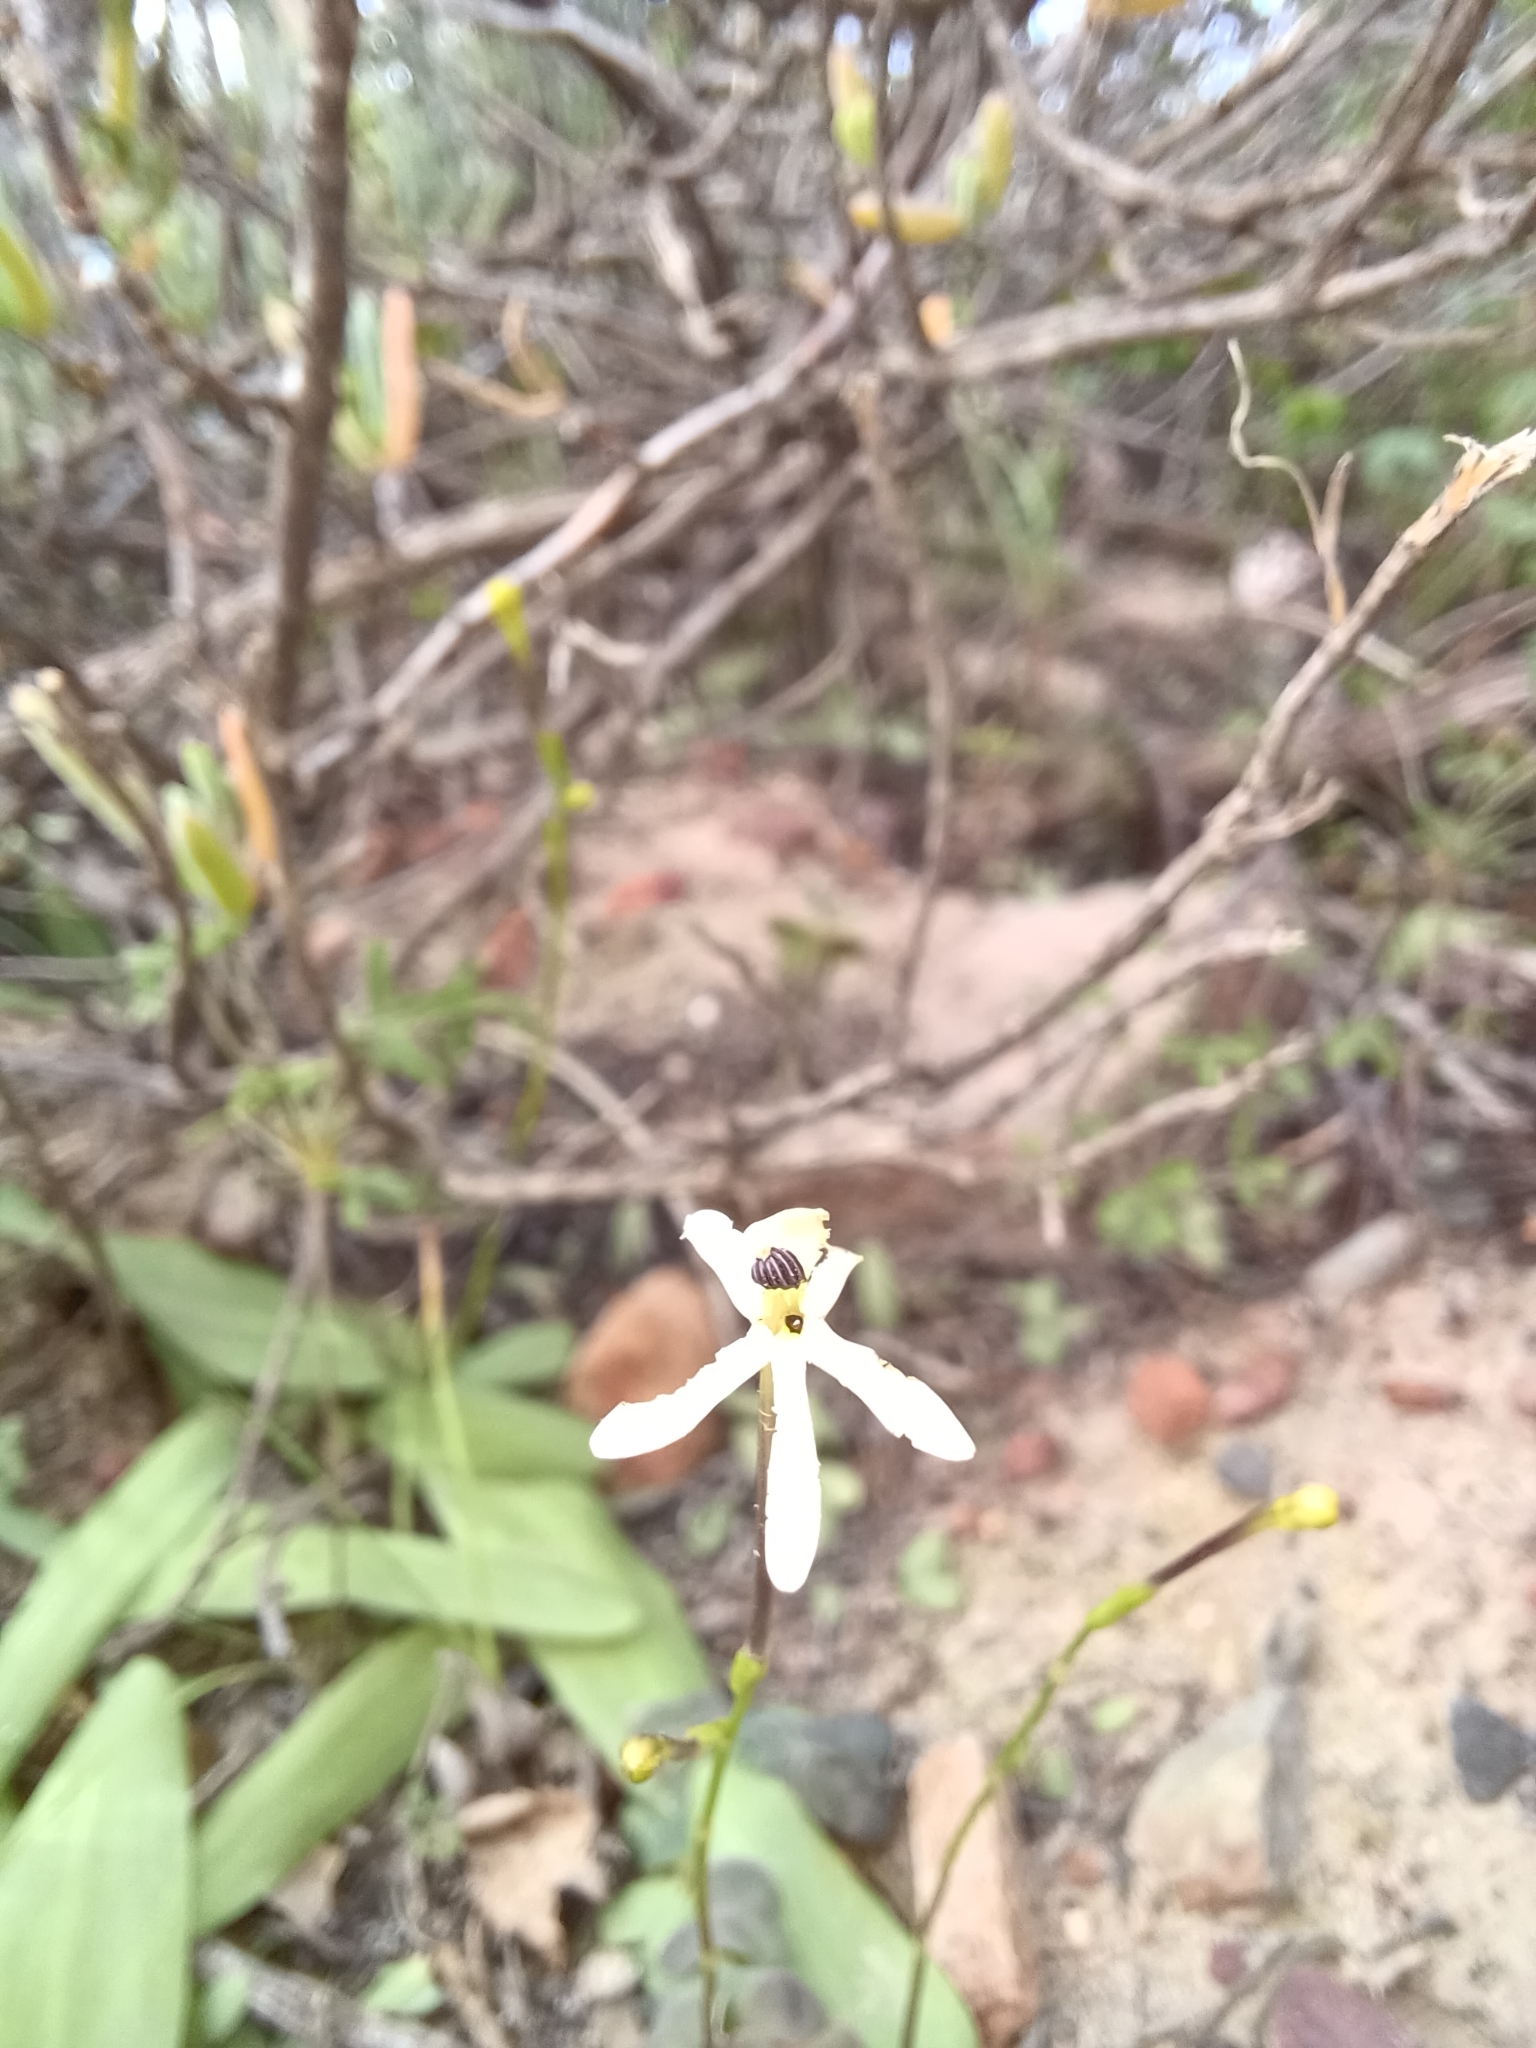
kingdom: Plantae
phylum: Tracheophyta
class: Liliopsida
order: Asparagales
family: Iridaceae
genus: Xenoscapa
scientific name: Xenoscapa fistulosa
